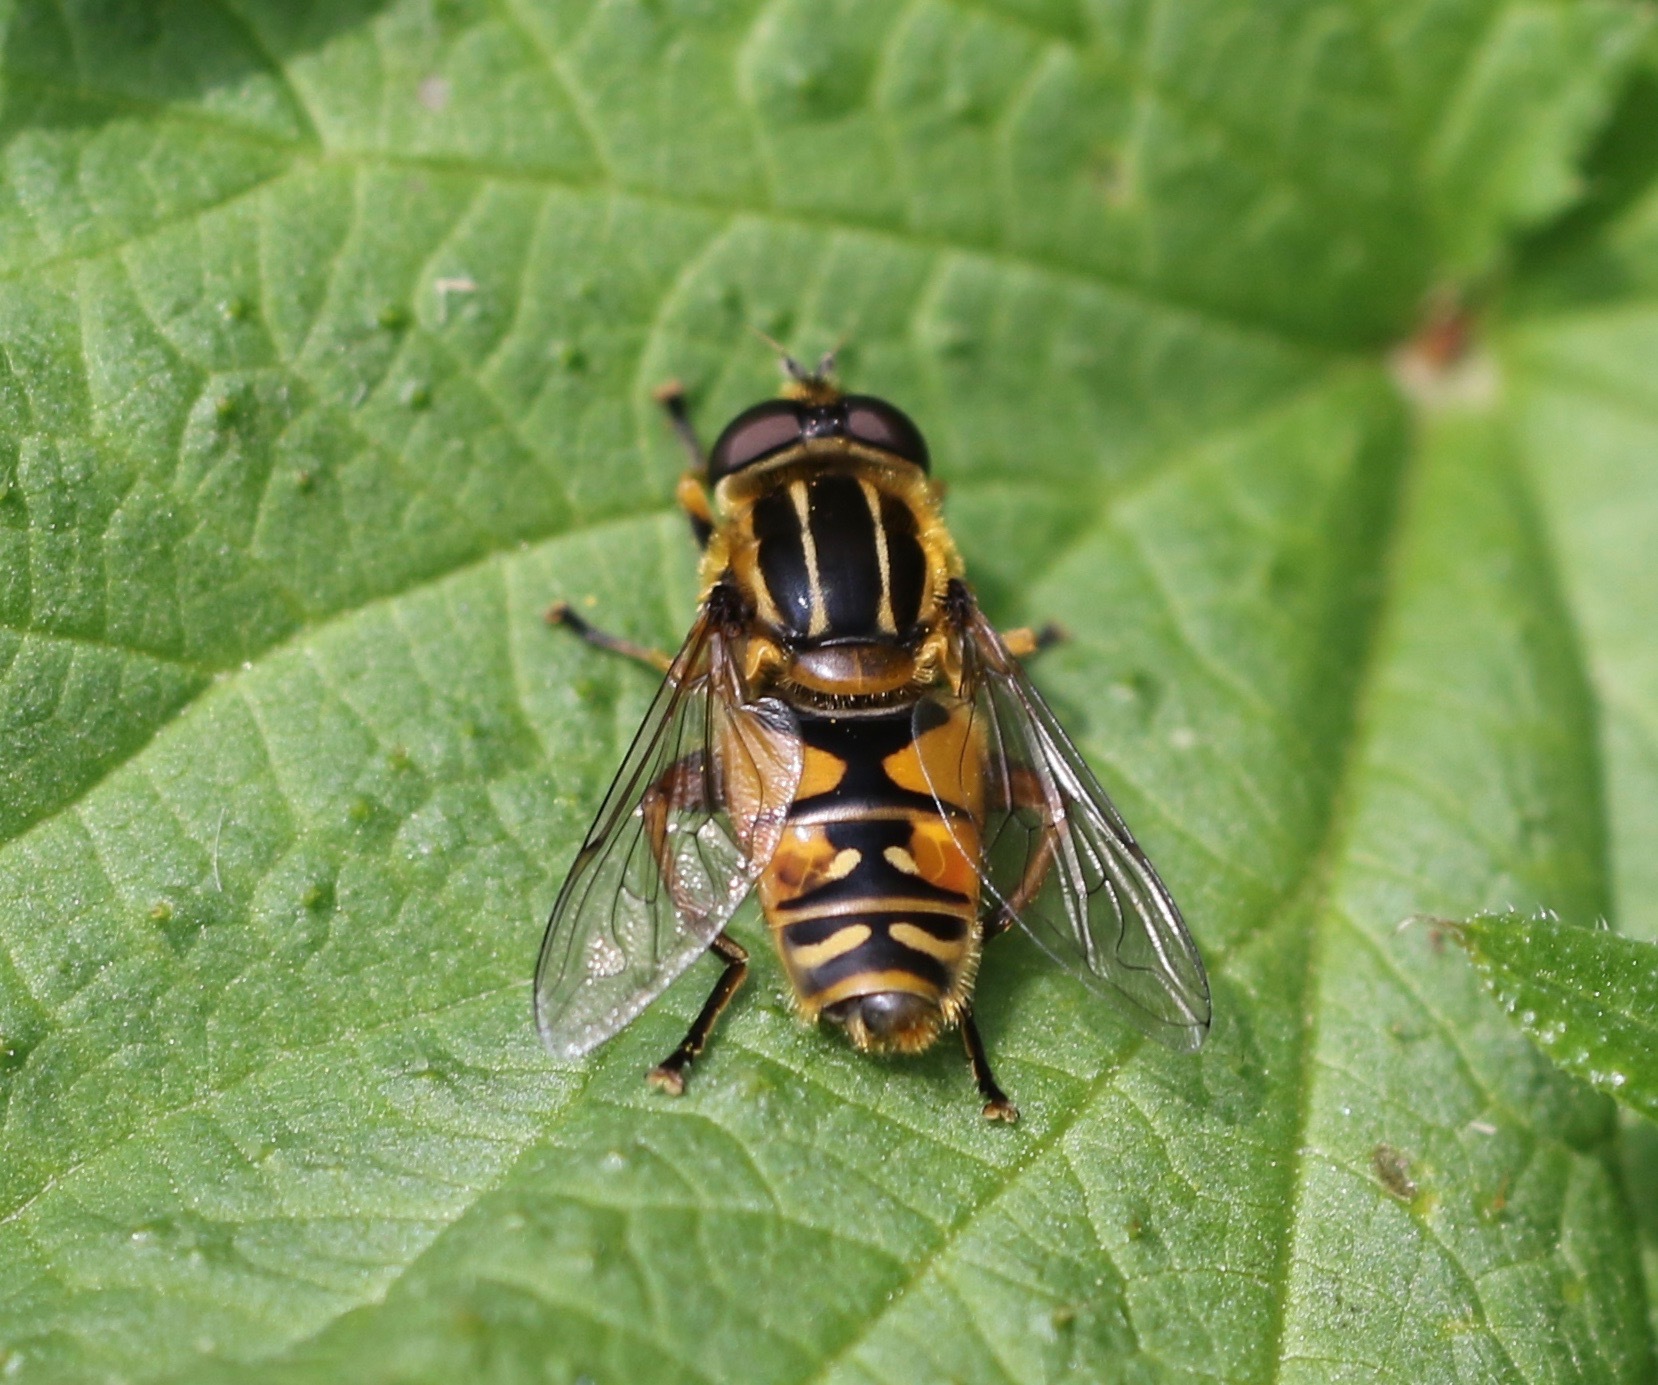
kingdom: Animalia
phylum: Arthropoda
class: Insecta
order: Diptera
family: Syrphidae
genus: Helophilus
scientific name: Helophilus pendulus
